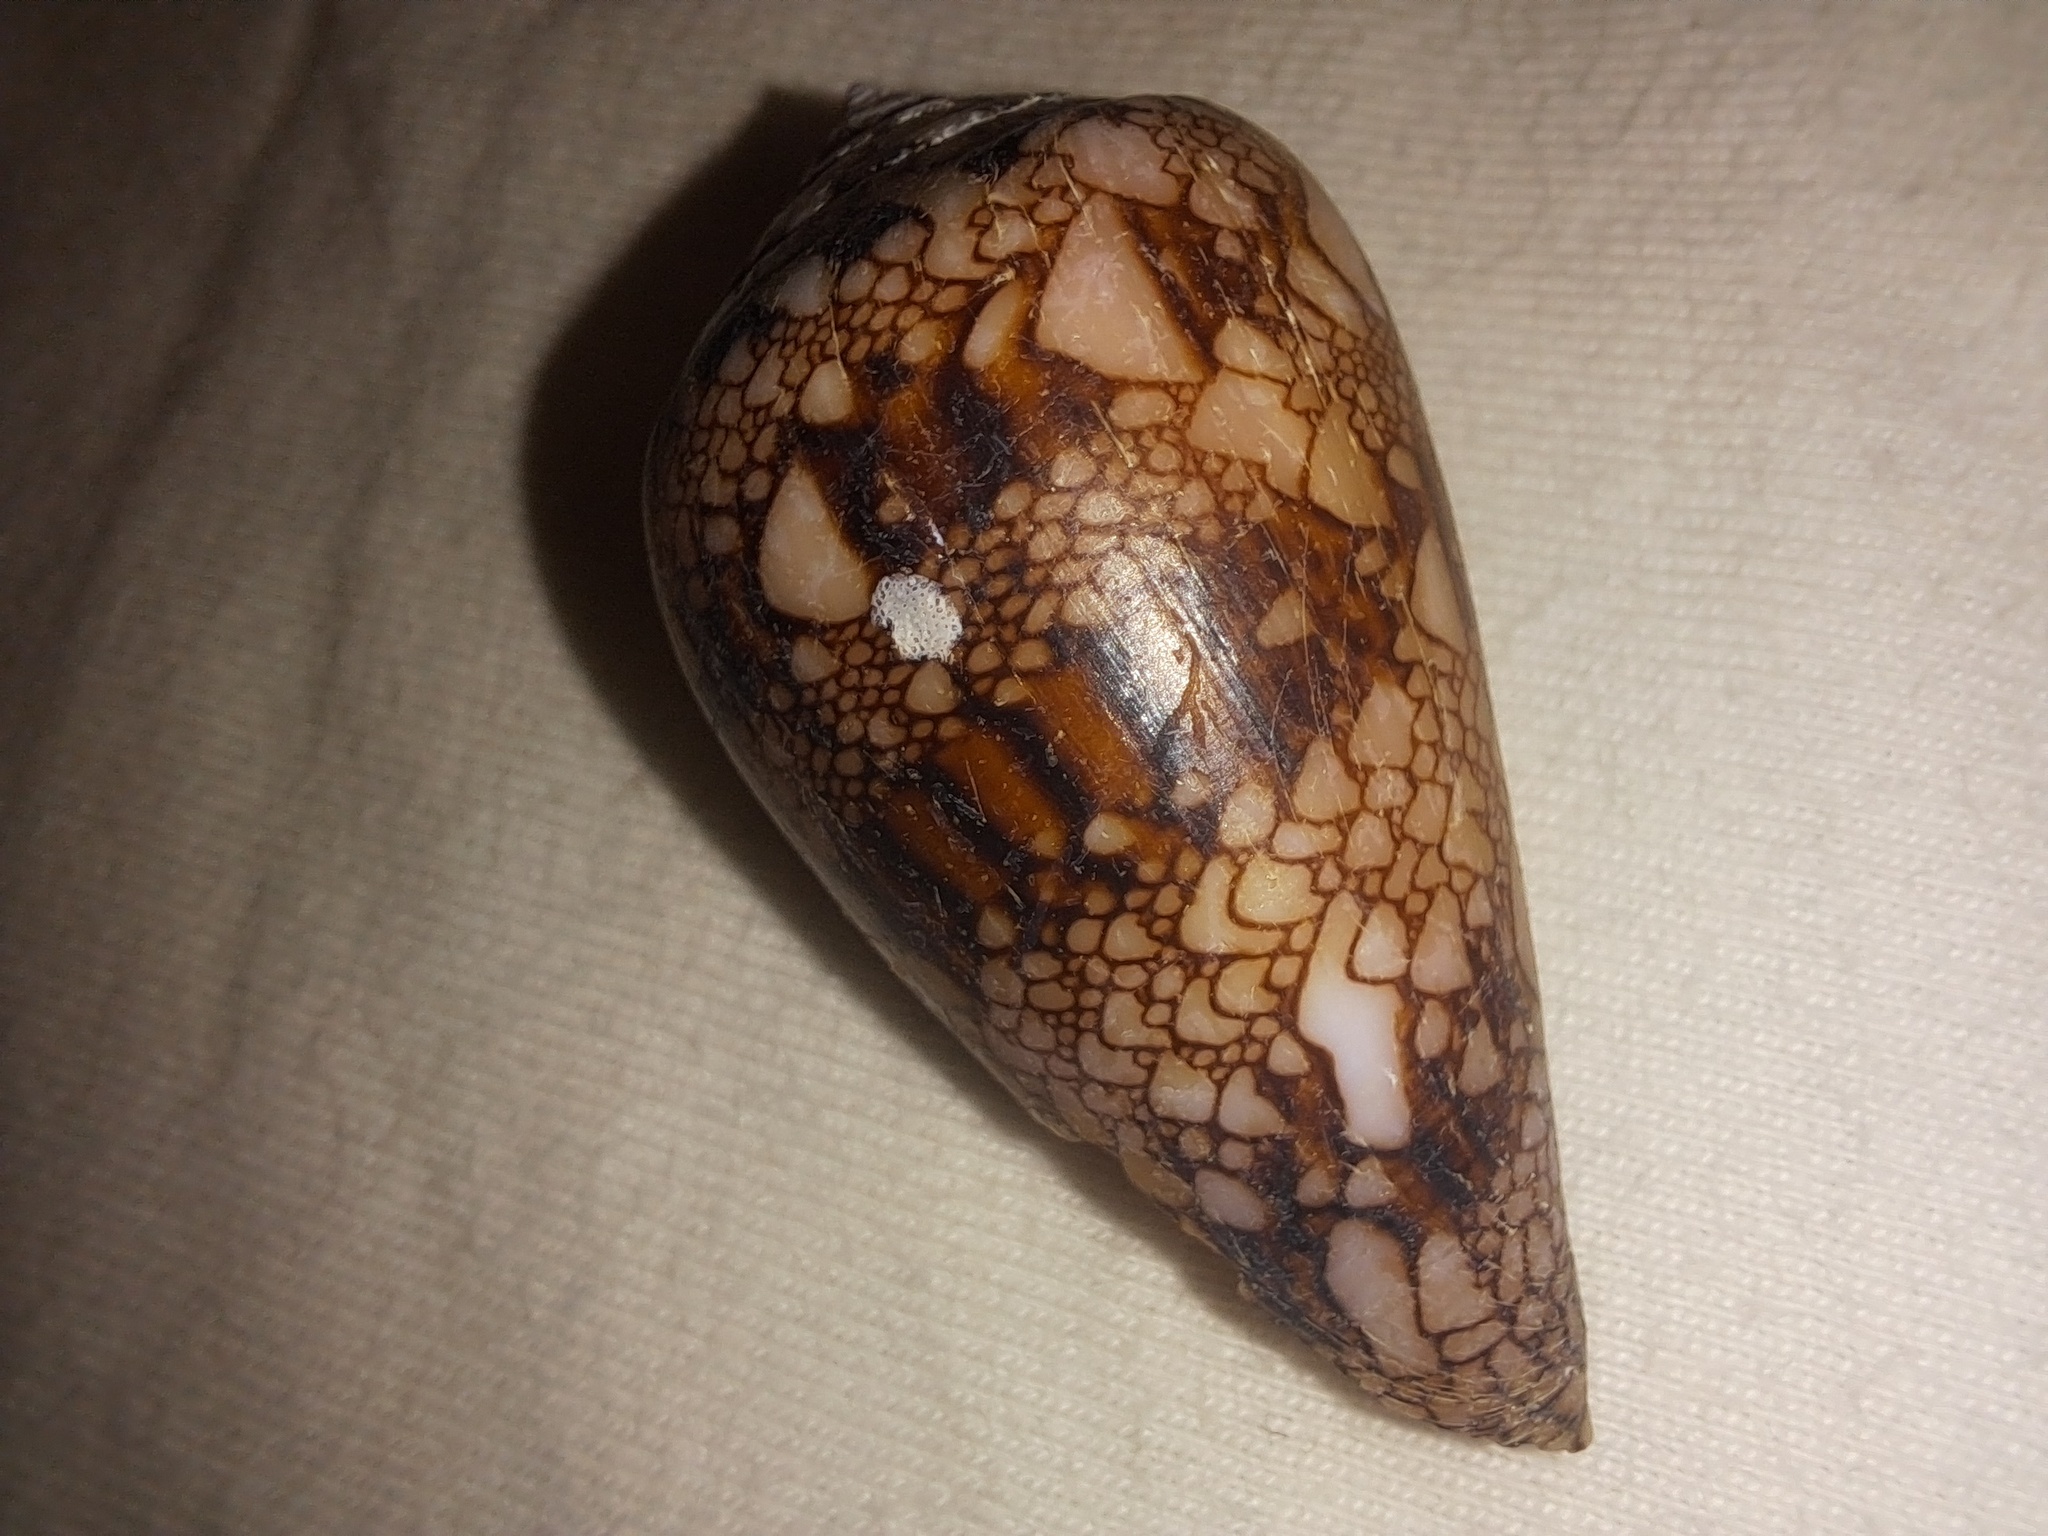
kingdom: Animalia
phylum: Mollusca
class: Gastropoda
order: Neogastropoda
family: Conidae
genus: Conus
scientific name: Conus dalli
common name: Dall's cone
